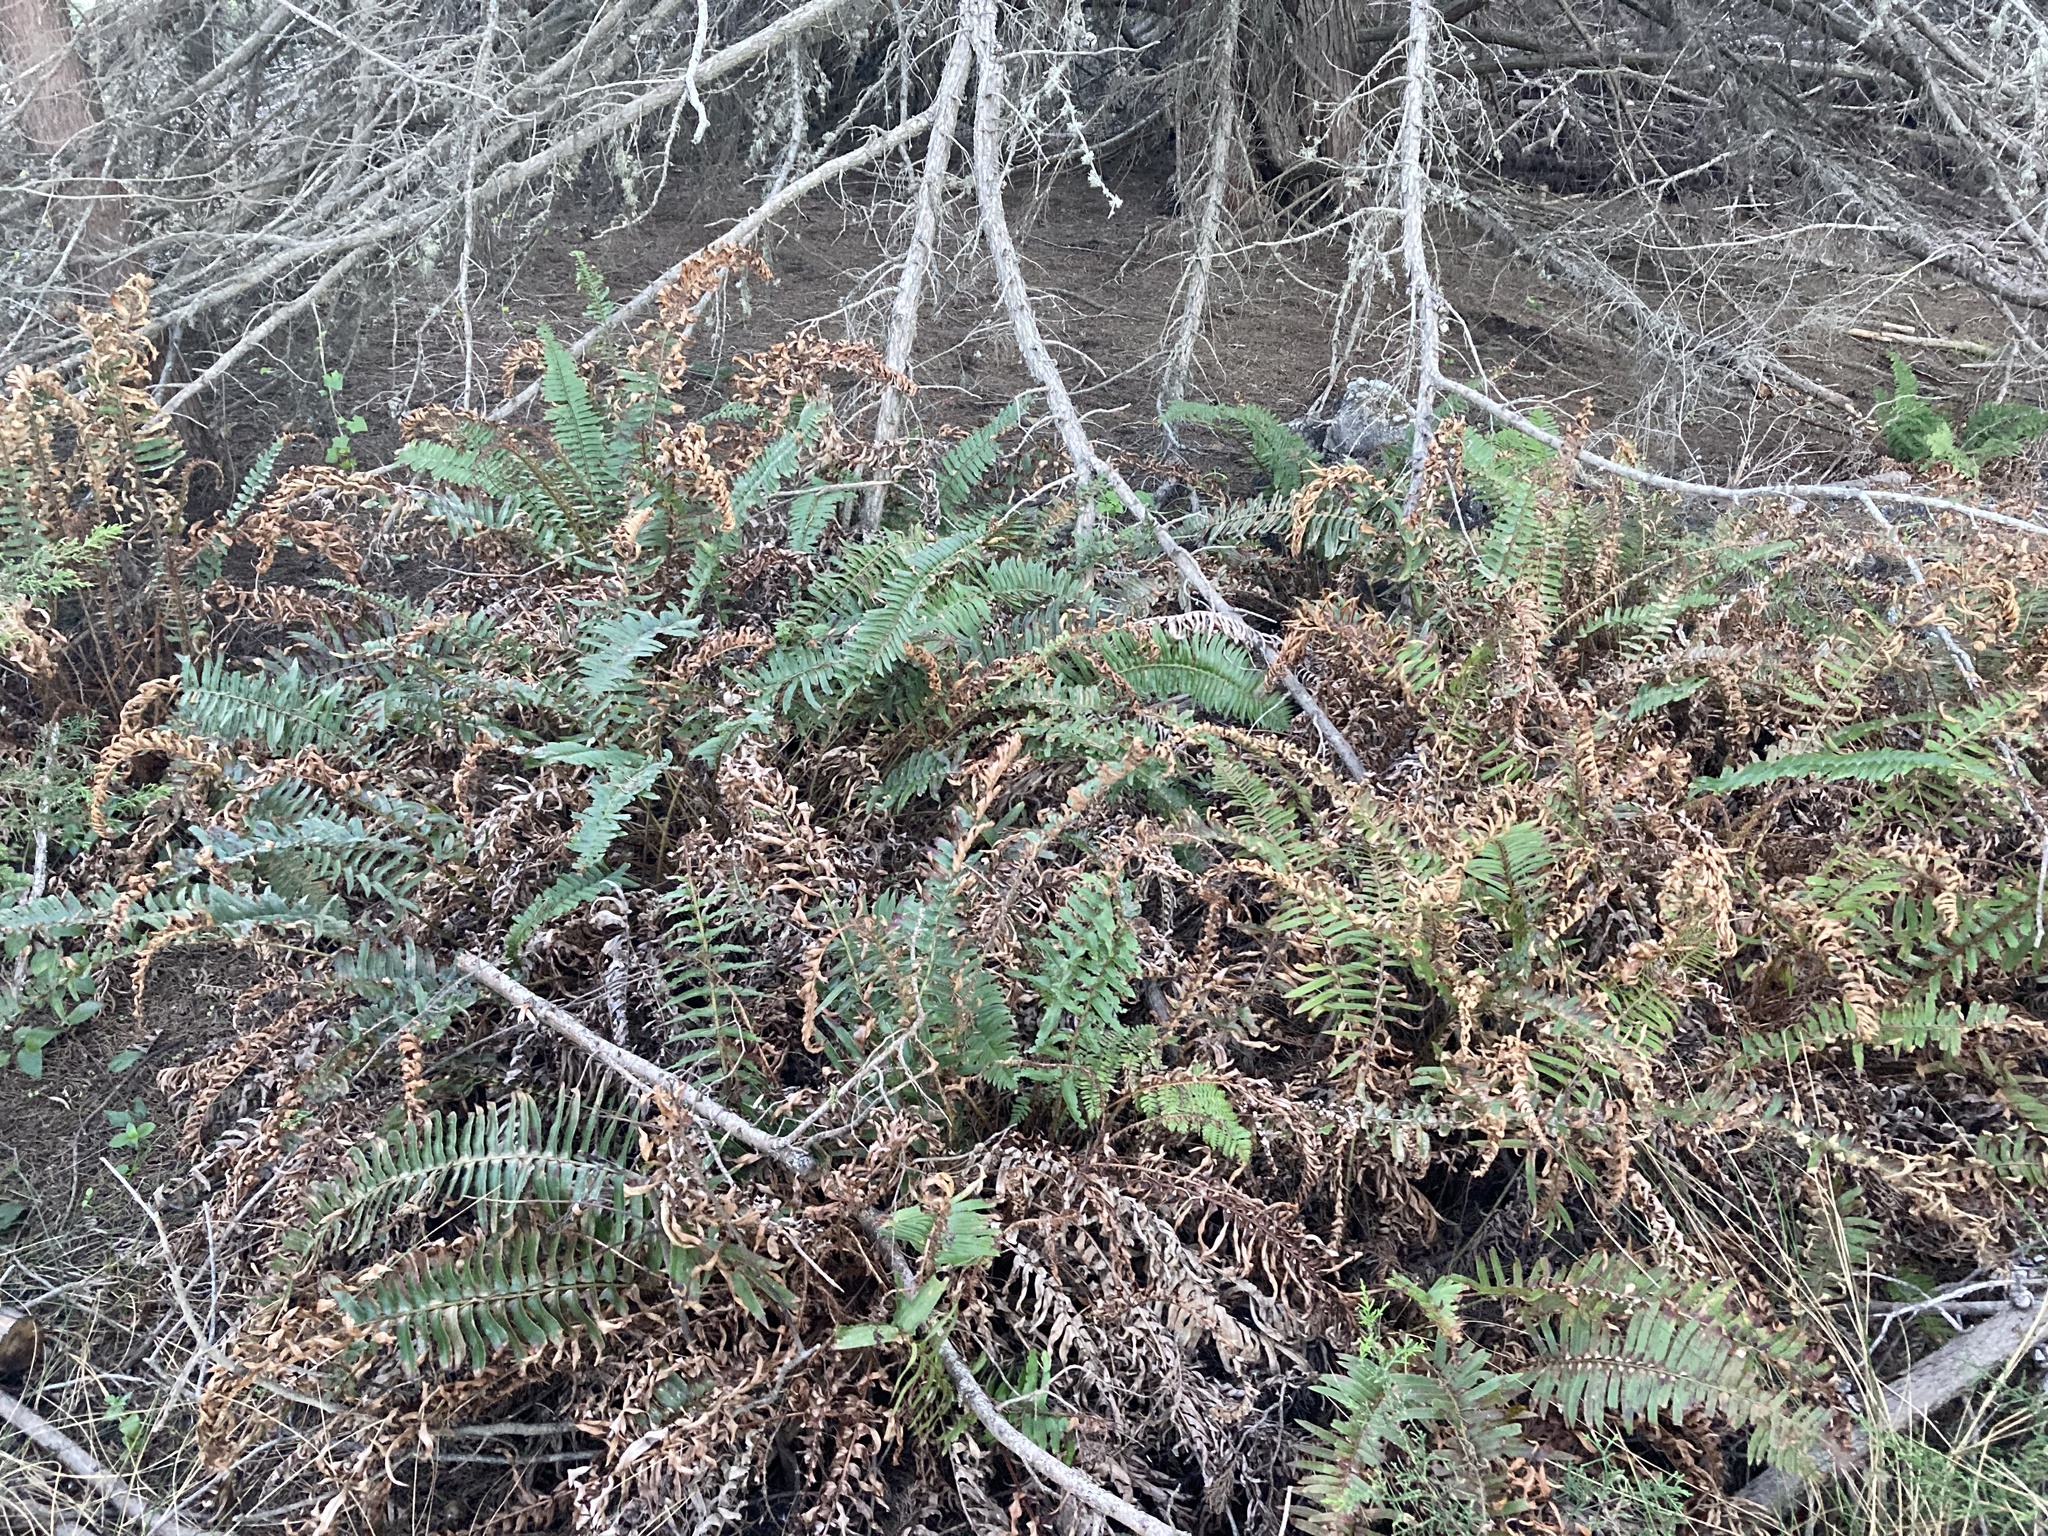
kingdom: Plantae
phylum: Tracheophyta
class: Polypodiopsida
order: Polypodiales
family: Dryopteridaceae
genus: Polystichum
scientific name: Polystichum munitum
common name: Western sword-fern
